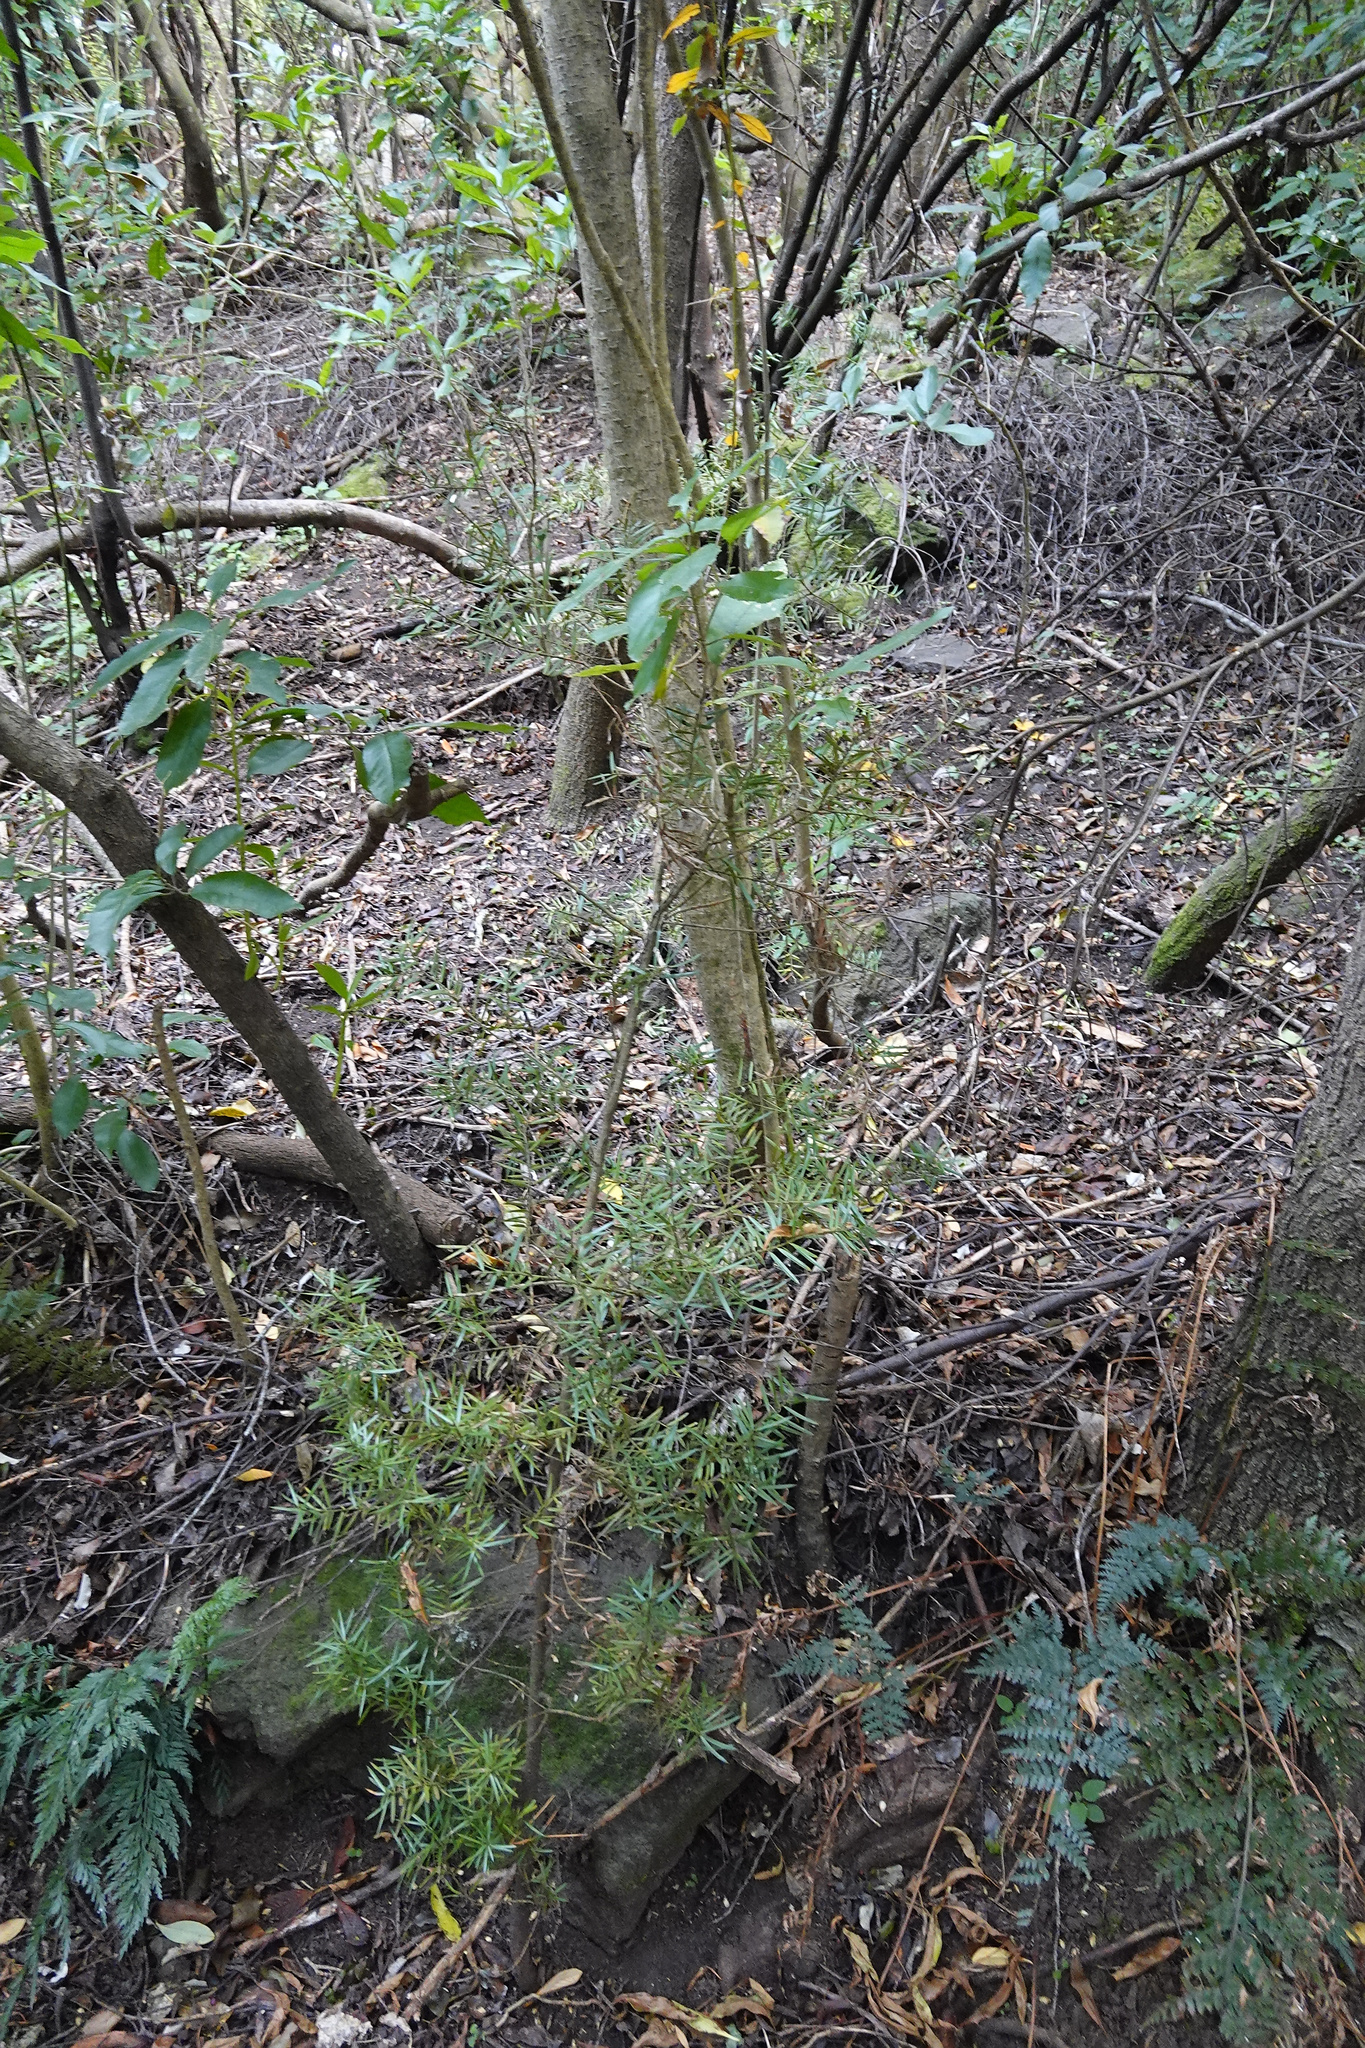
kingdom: Plantae
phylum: Tracheophyta
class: Pinopsida
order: Pinales
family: Podocarpaceae
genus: Podocarpus
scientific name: Podocarpus totara
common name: Totara
